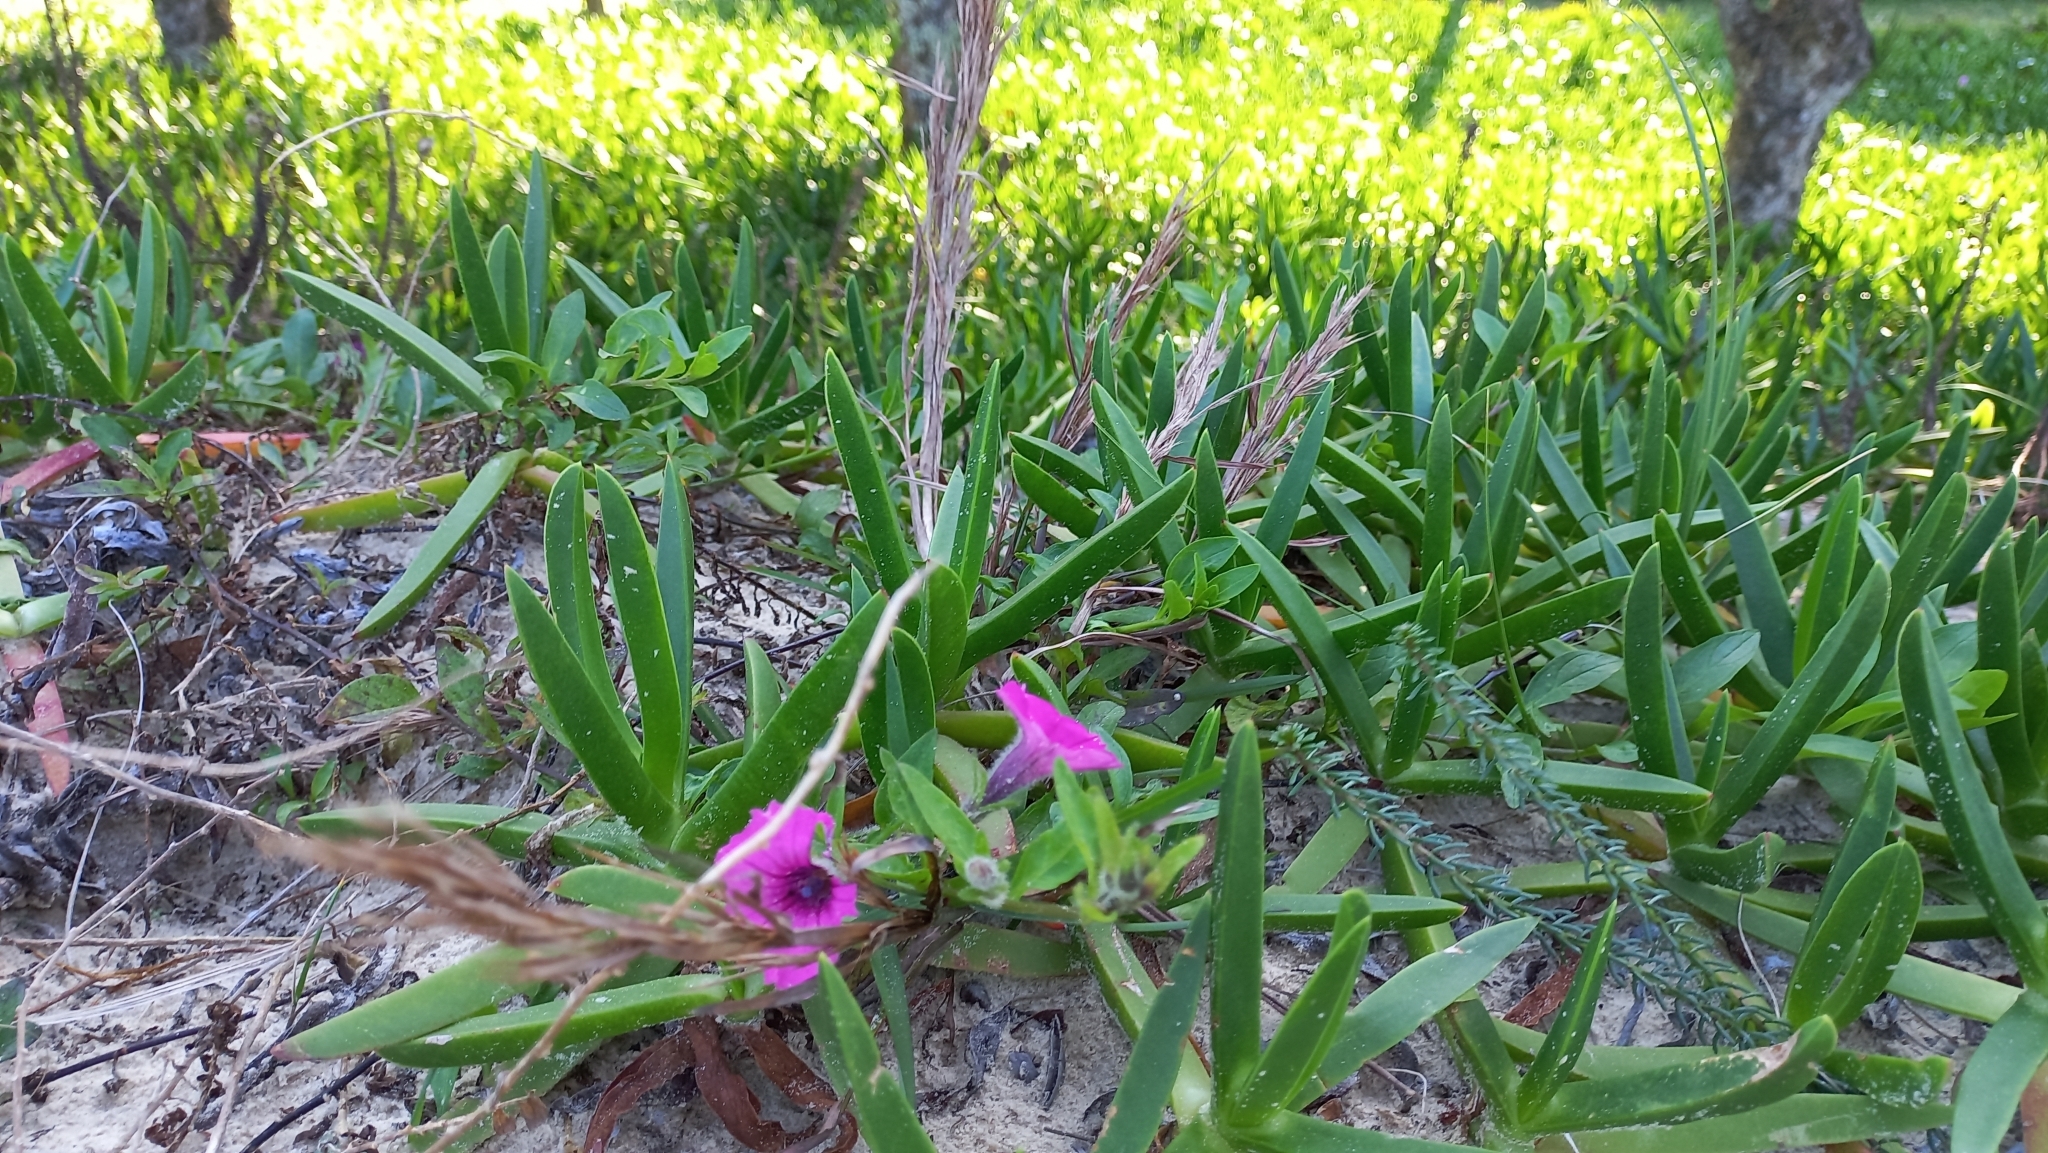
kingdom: Plantae
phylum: Tracheophyta
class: Magnoliopsida
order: Solanales
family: Solanaceae
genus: Petunia
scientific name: Petunia integrifolia
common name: Violet-flower petunia
